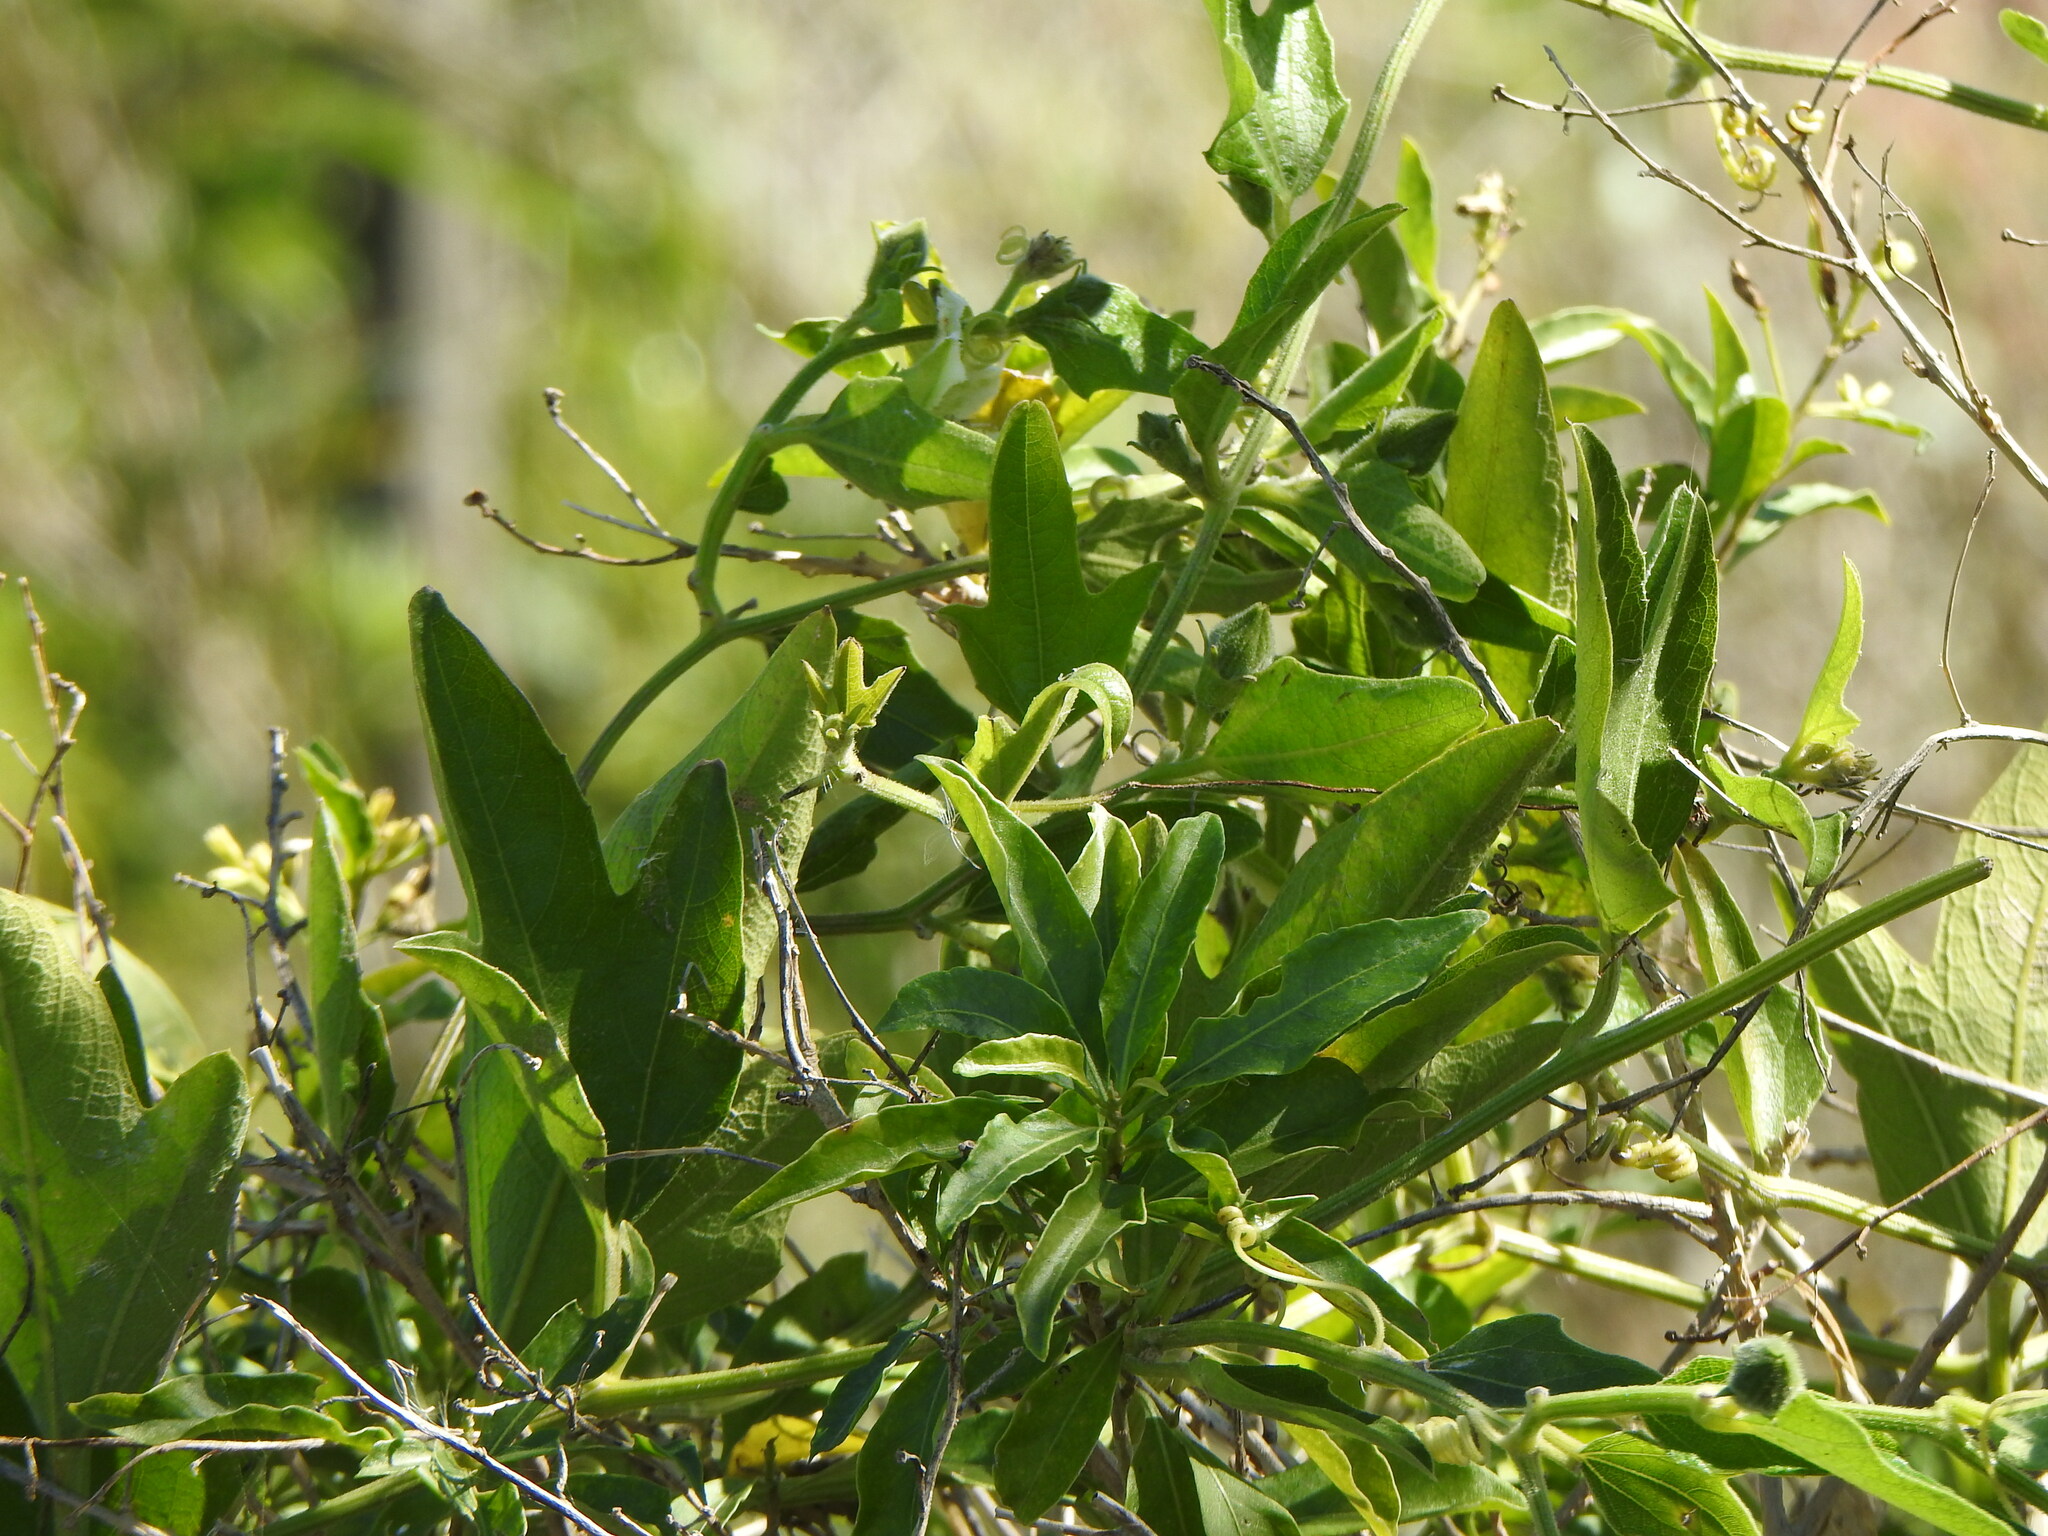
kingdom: Plantae
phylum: Tracheophyta
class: Magnoliopsida
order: Cucurbitales
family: Cucurbitaceae
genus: Cayaponia
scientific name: Cayaponia podantha
